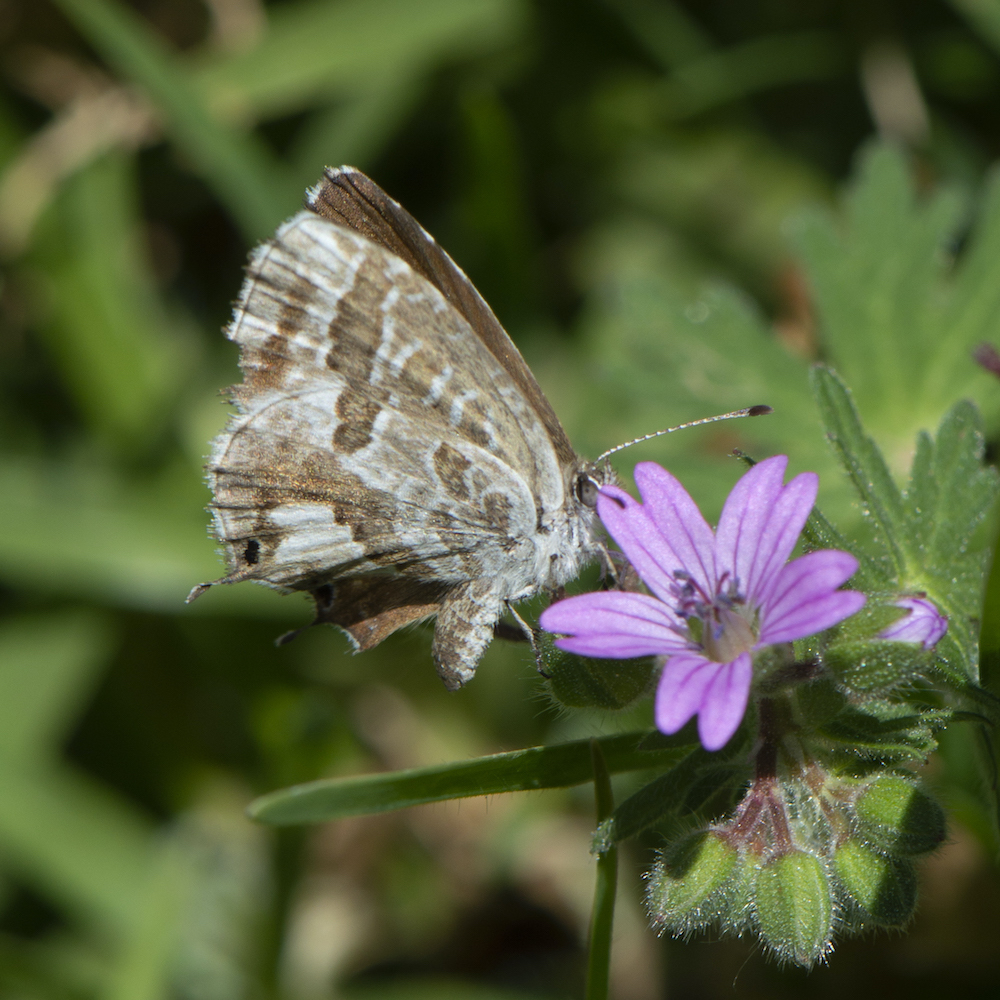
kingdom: Animalia
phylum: Arthropoda
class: Insecta
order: Lepidoptera
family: Lycaenidae
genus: Cacyreus
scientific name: Cacyreus marshalli
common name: Geranium bronze
